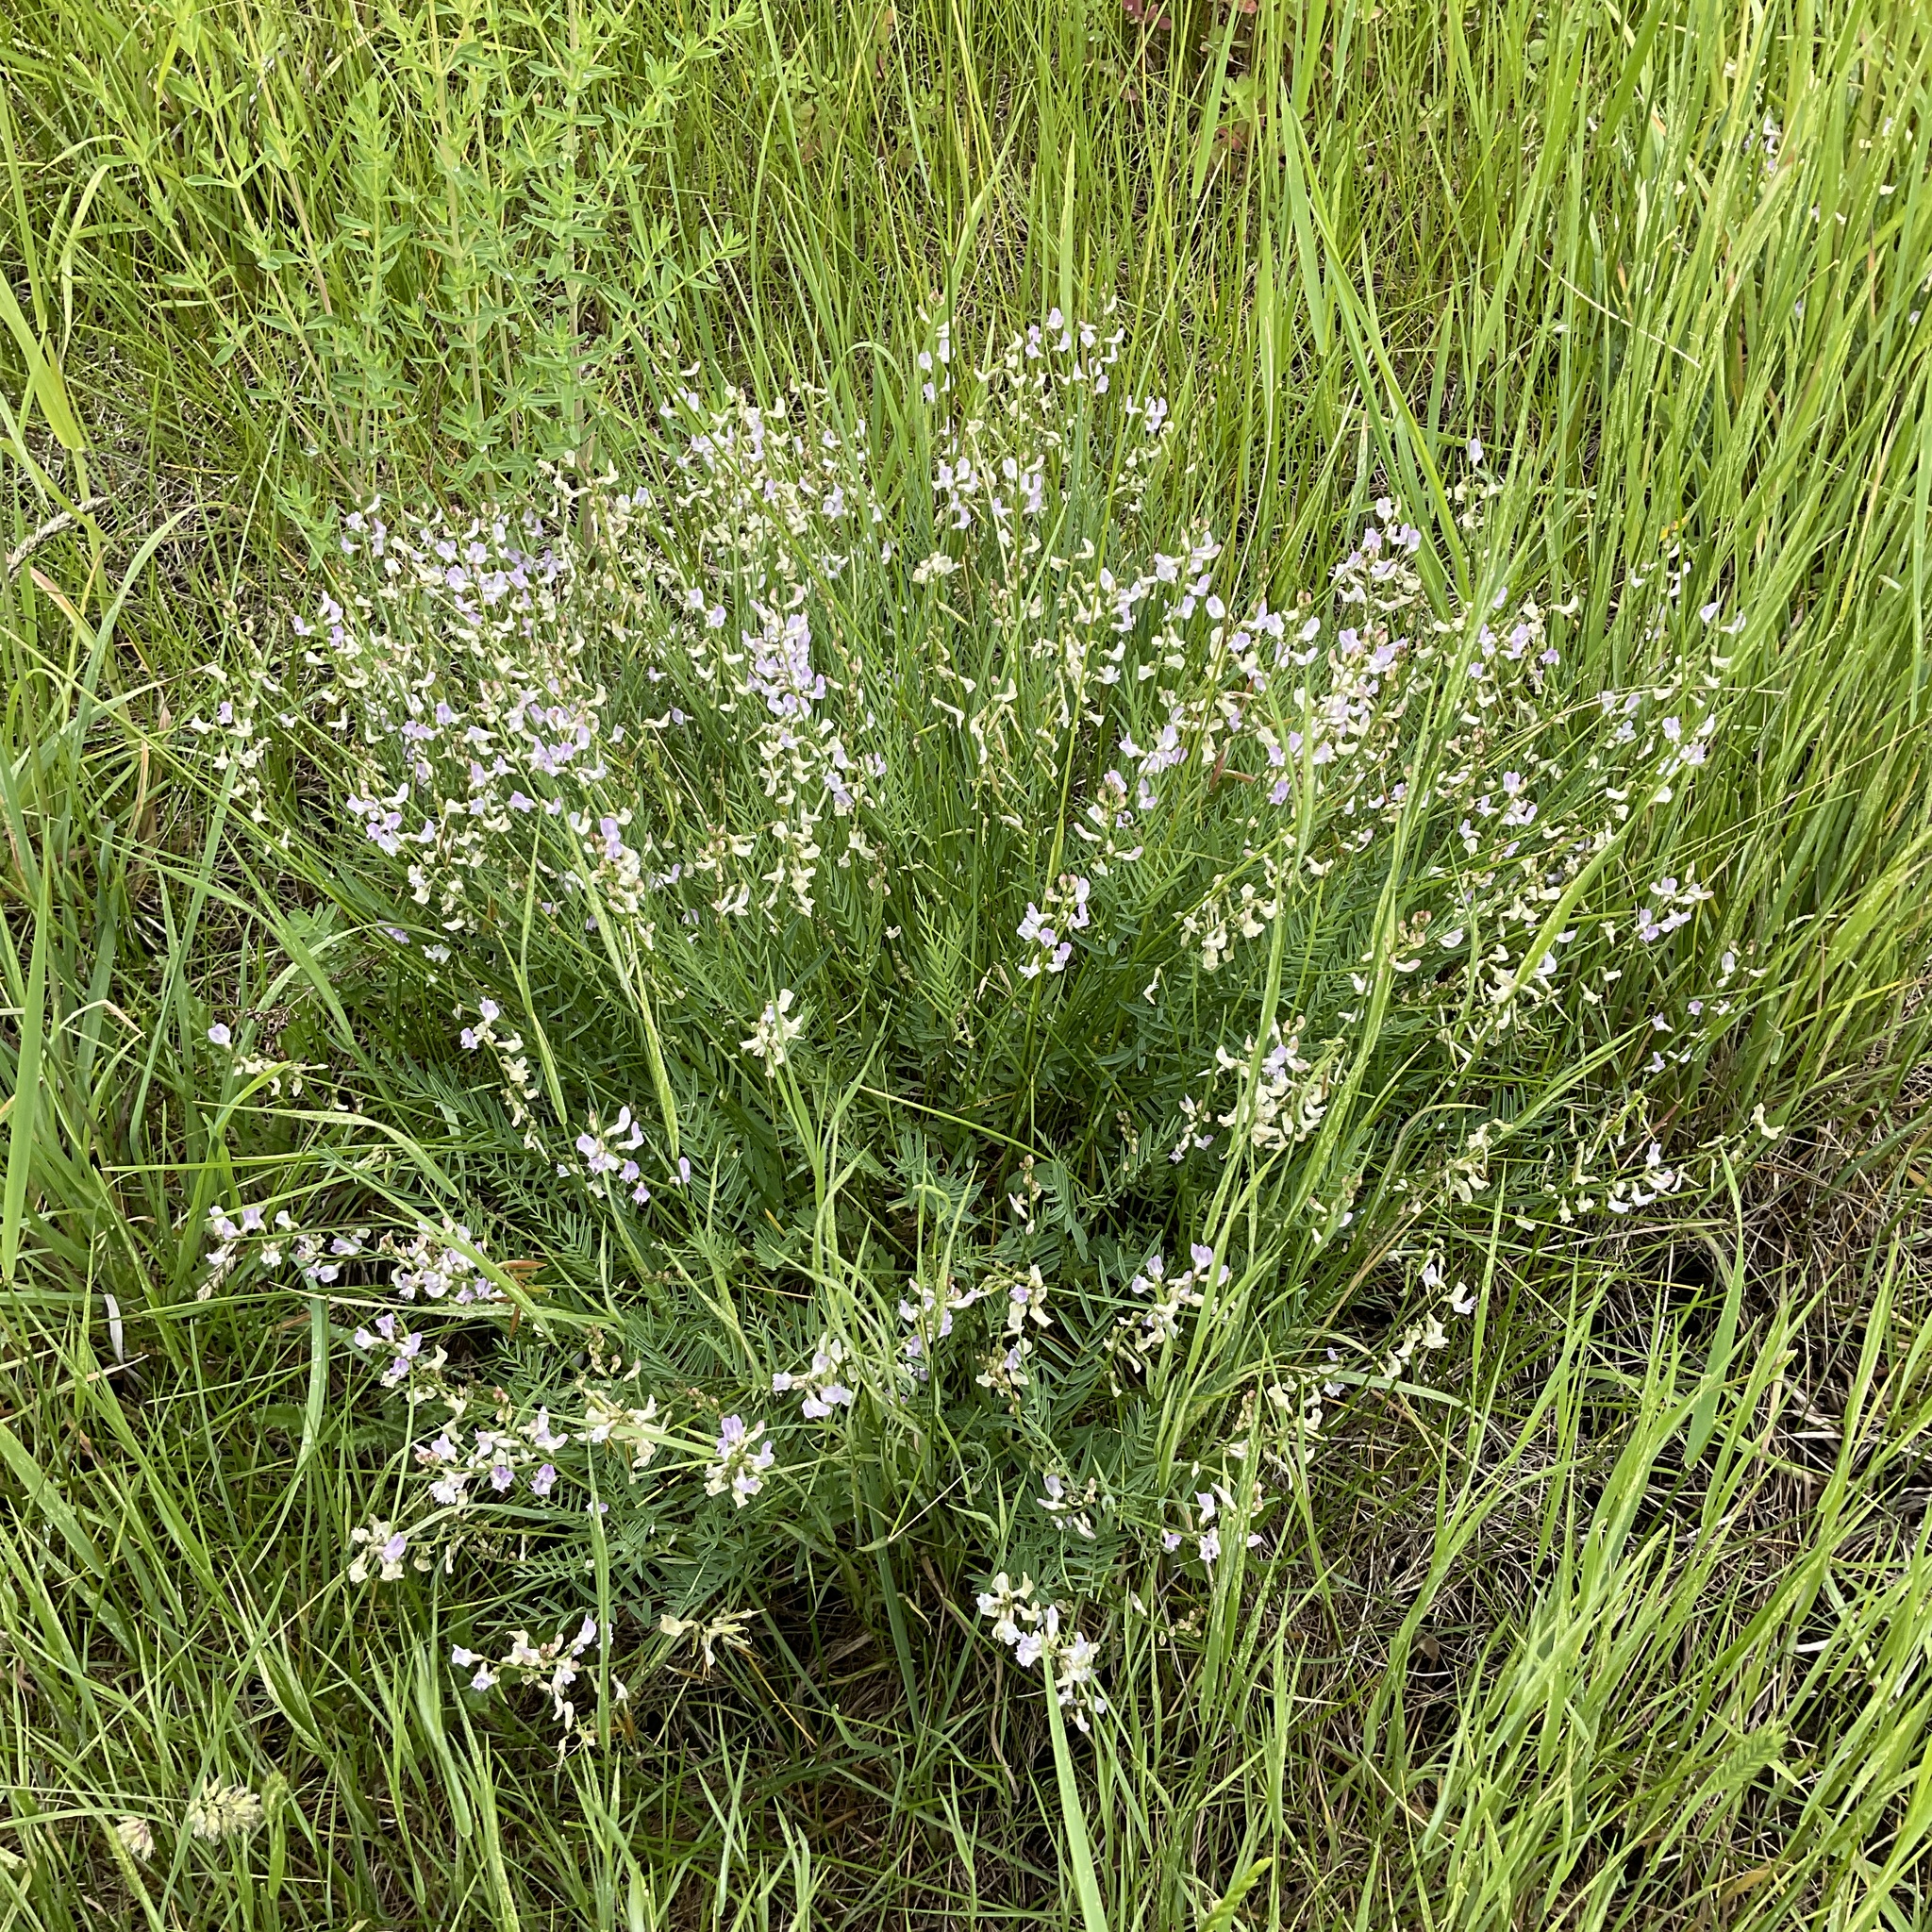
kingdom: Plantae
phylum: Tracheophyta
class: Magnoliopsida
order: Fabales
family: Fabaceae
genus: Astragalus
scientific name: Astragalus miser
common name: Timber milkvetch
